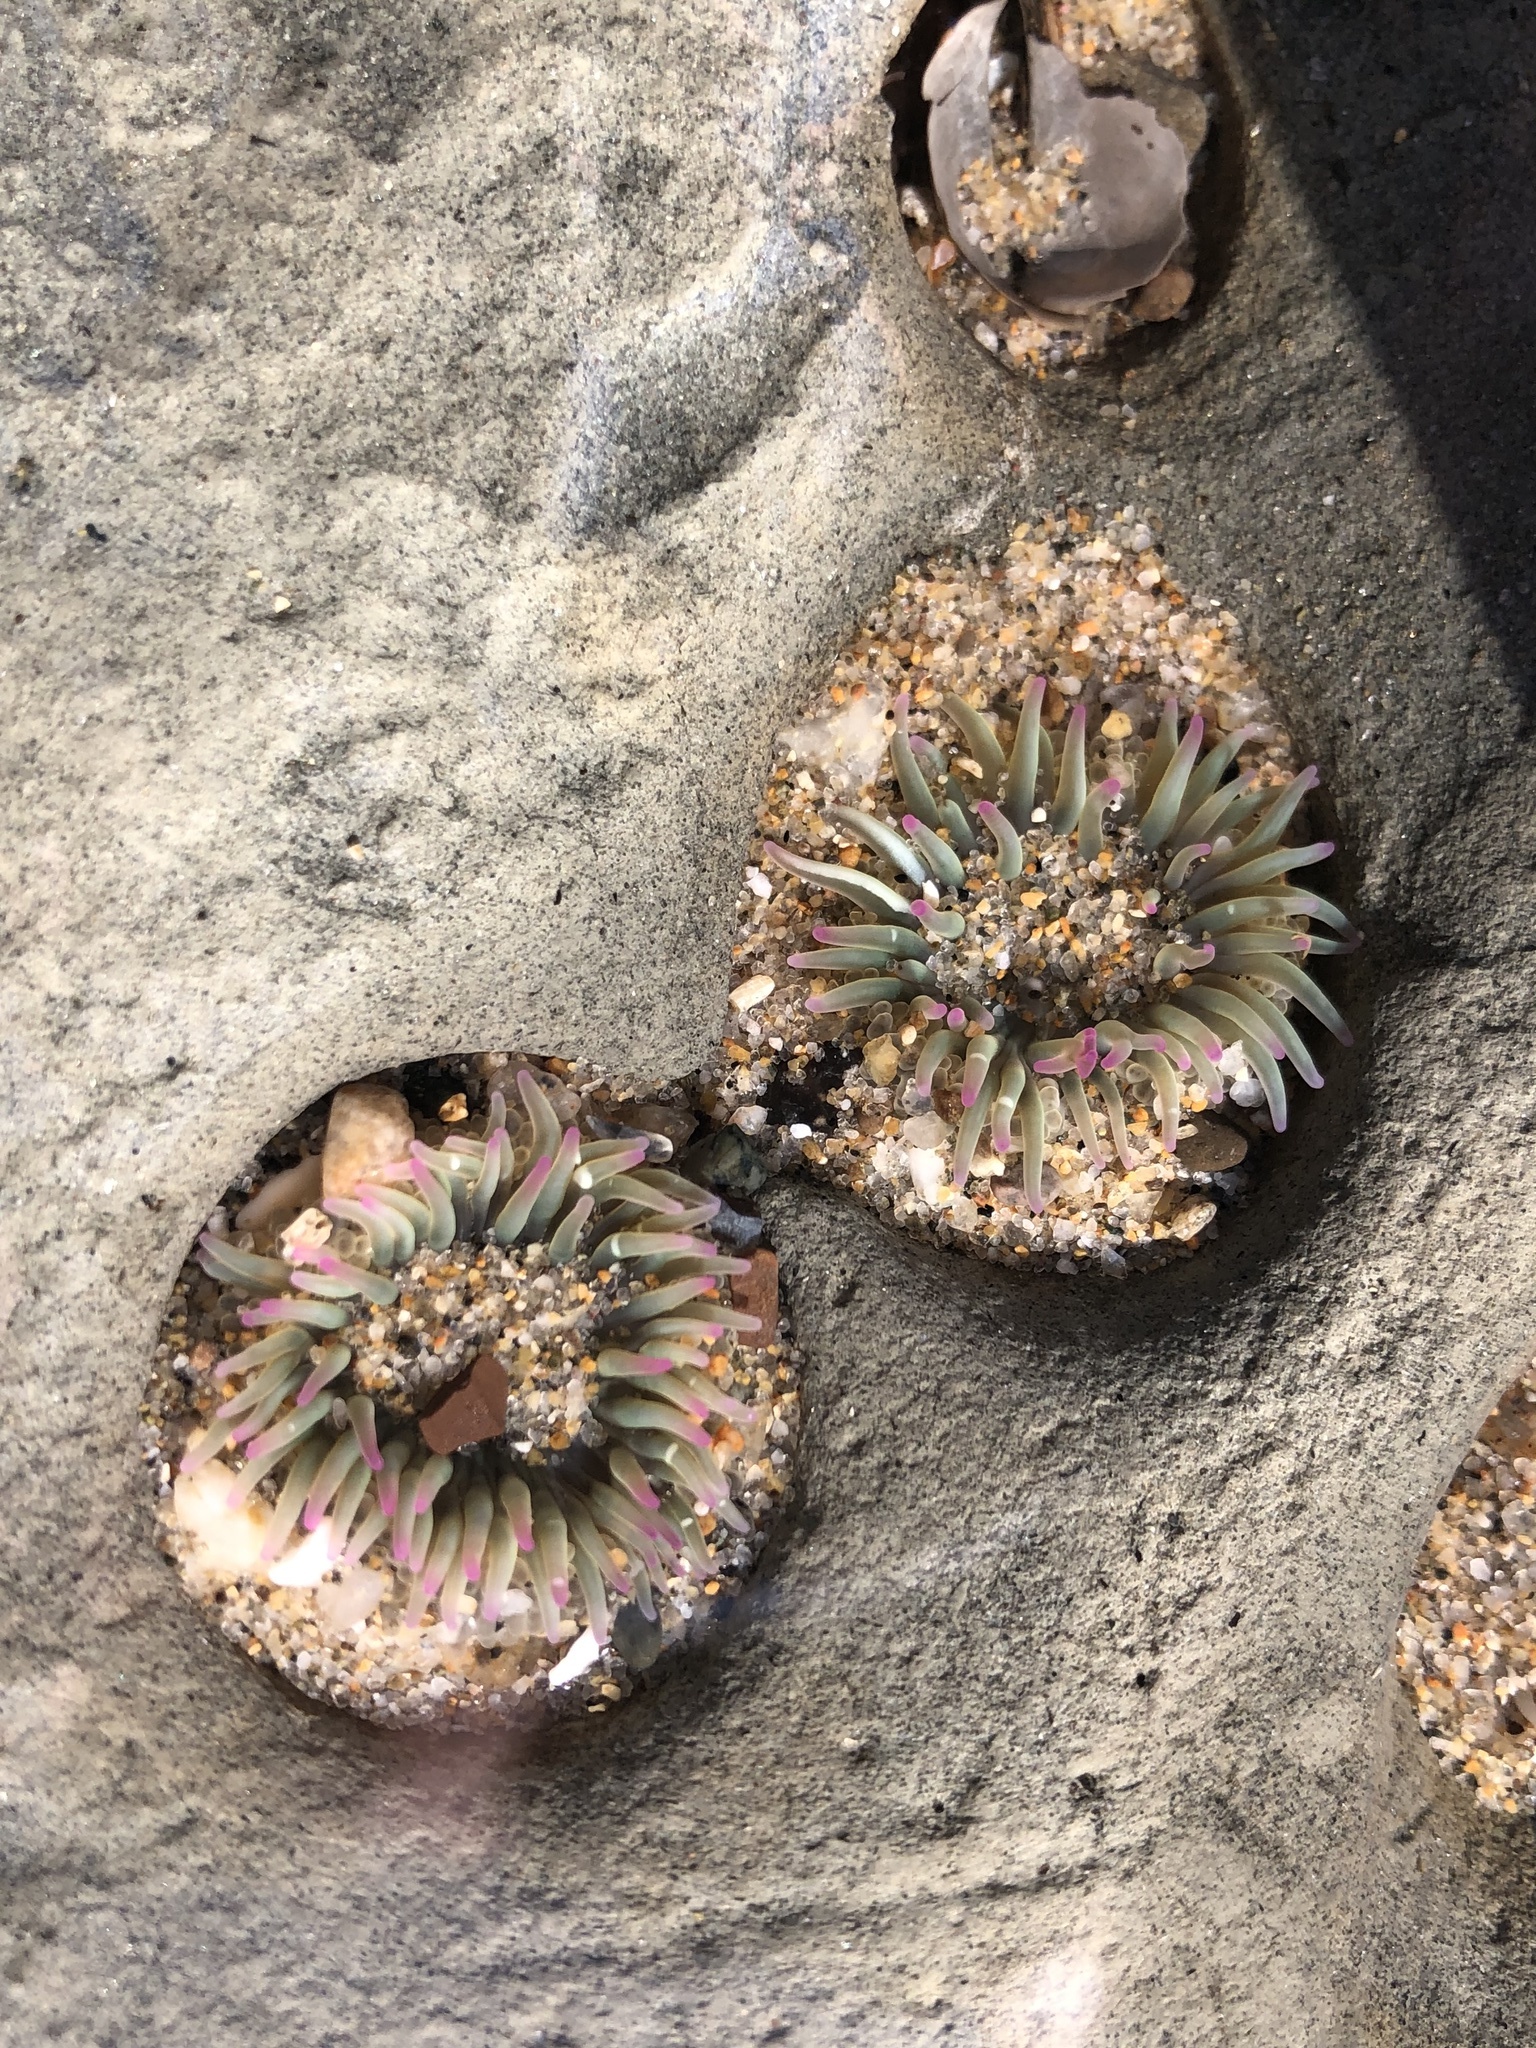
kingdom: Animalia
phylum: Cnidaria
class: Anthozoa
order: Actiniaria
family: Actiniidae
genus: Anthopleura
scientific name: Anthopleura elegantissima
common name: Clonal anemone
